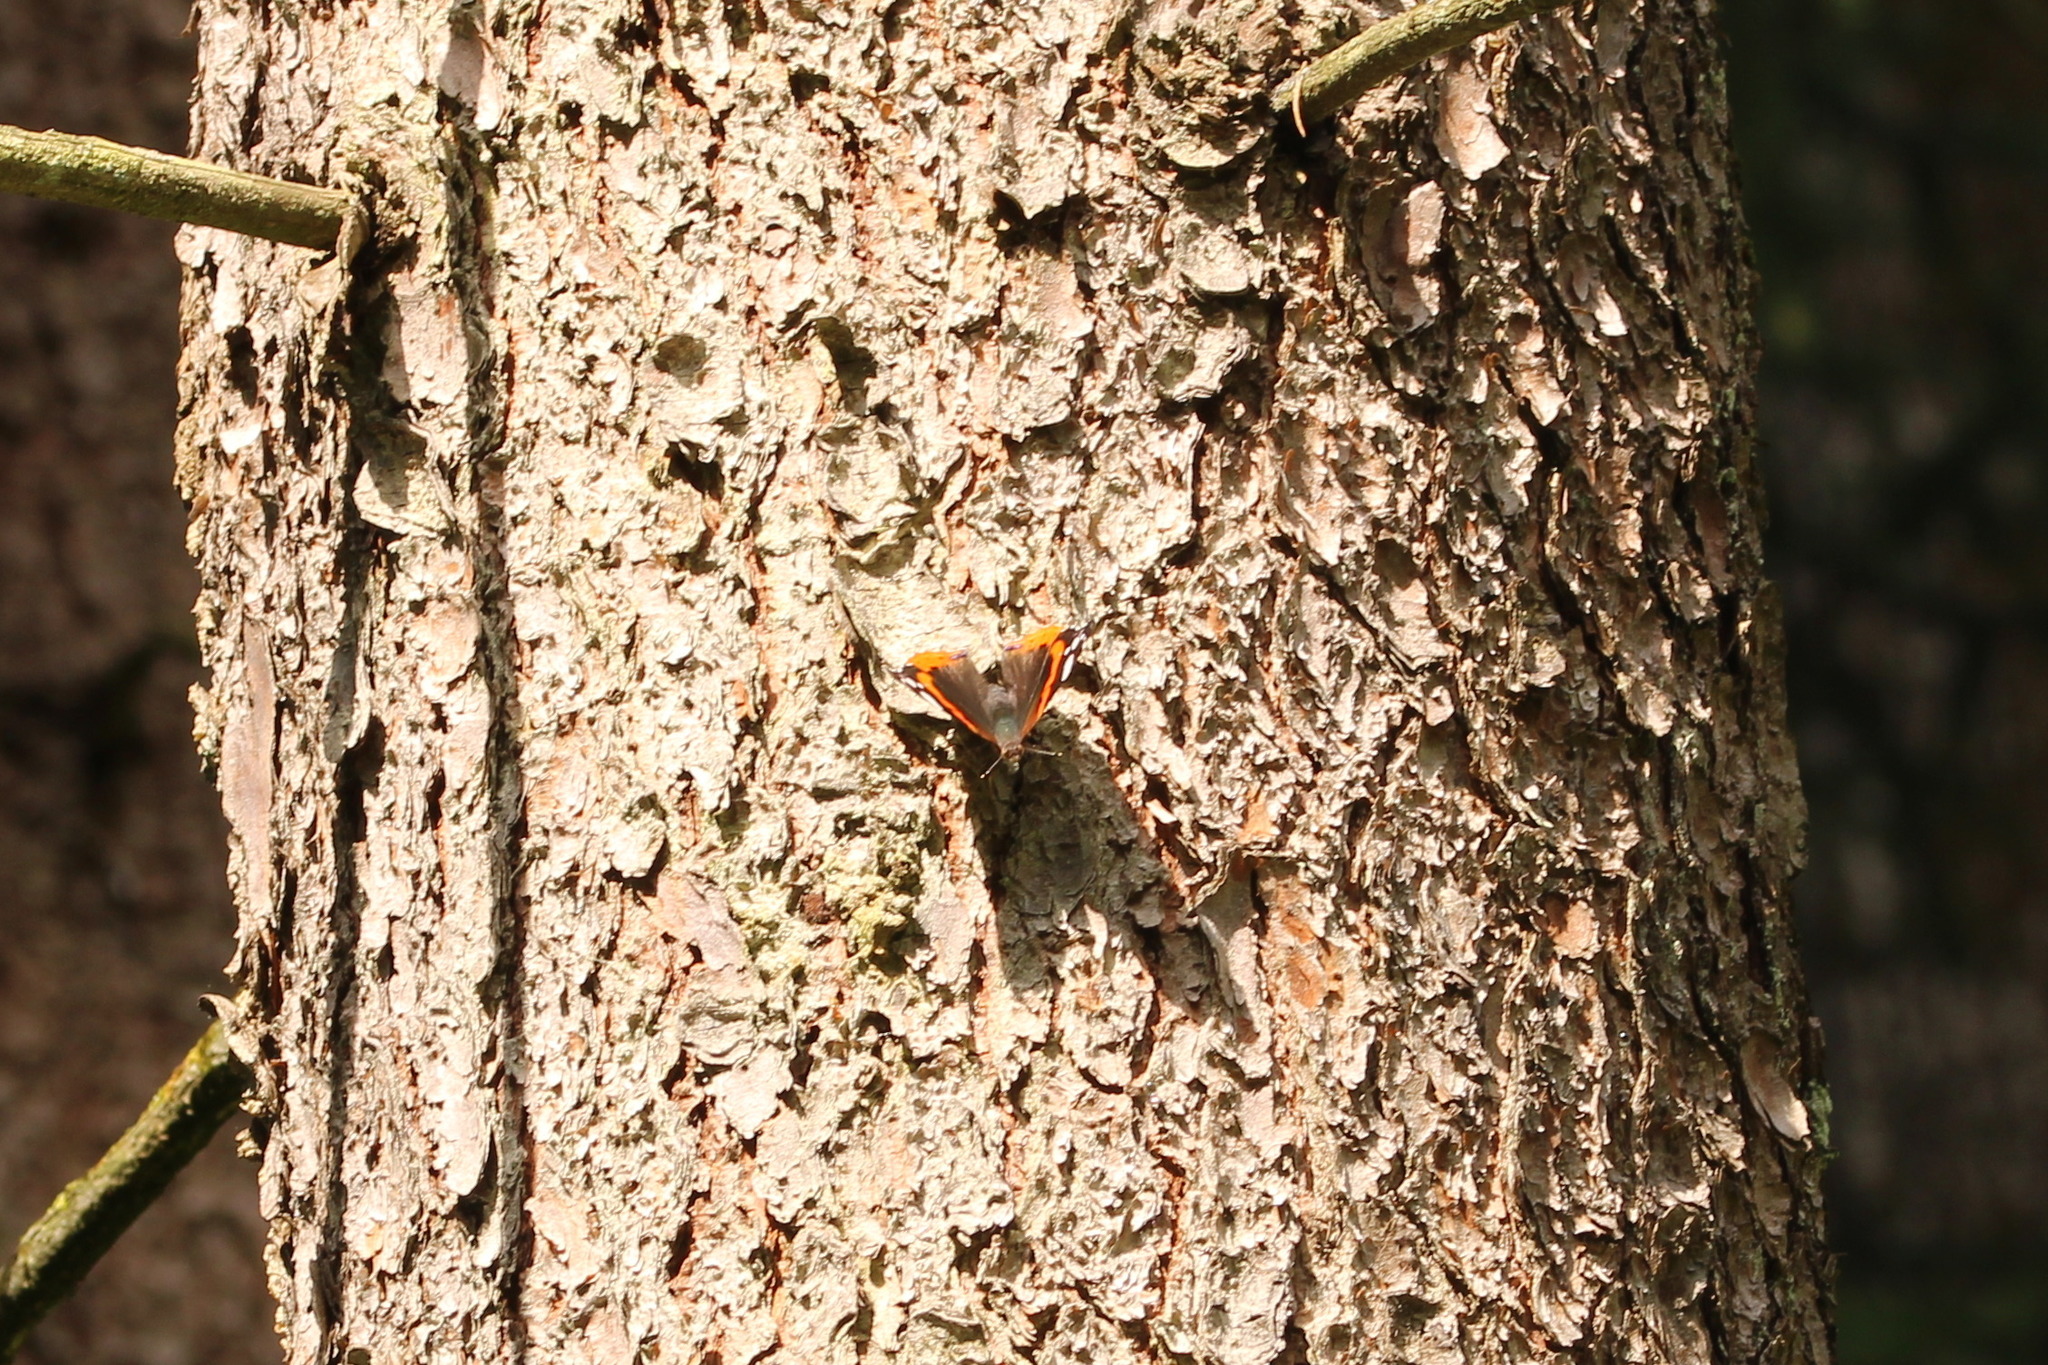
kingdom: Animalia
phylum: Arthropoda
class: Insecta
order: Lepidoptera
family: Nymphalidae
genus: Vanessa
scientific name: Vanessa atalanta
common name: Red admiral
